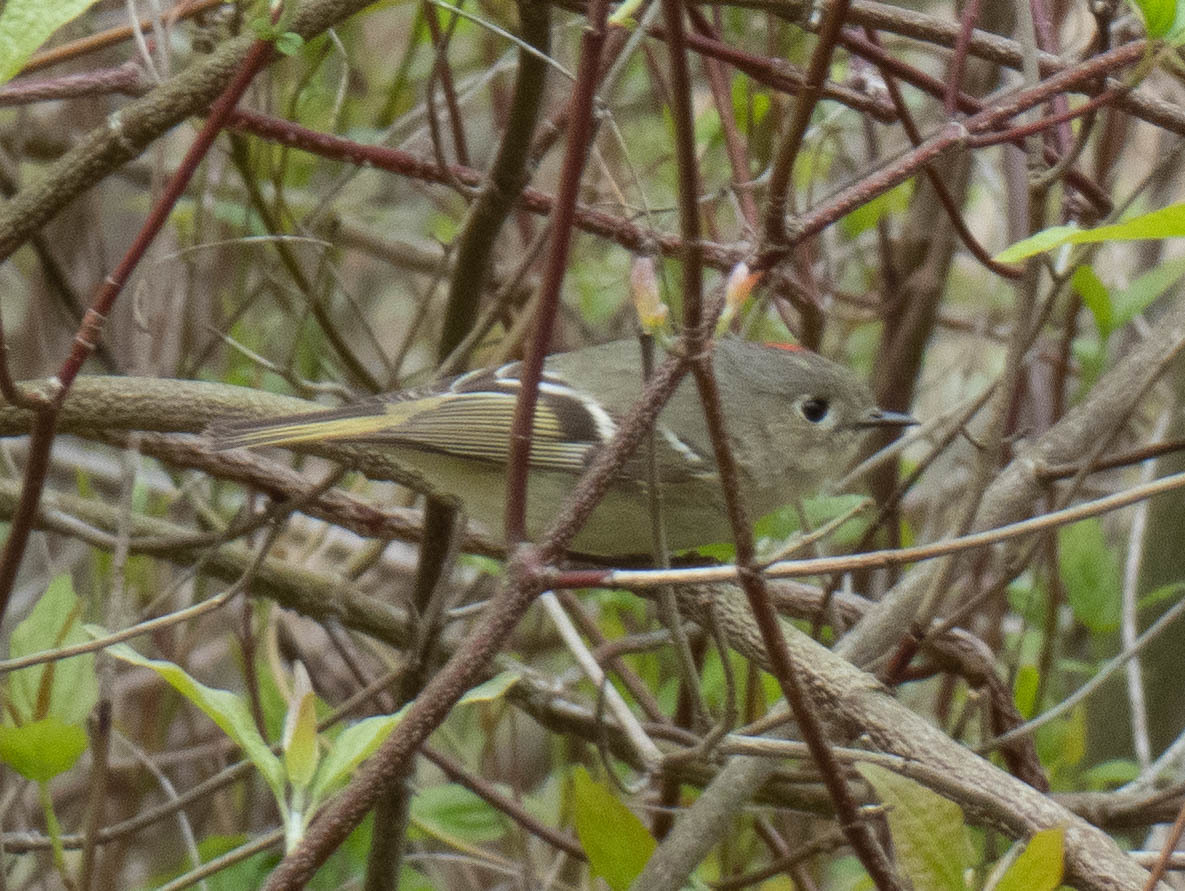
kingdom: Animalia
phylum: Chordata
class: Aves
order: Passeriformes
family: Regulidae
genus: Regulus
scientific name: Regulus calendula
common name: Ruby-crowned kinglet
